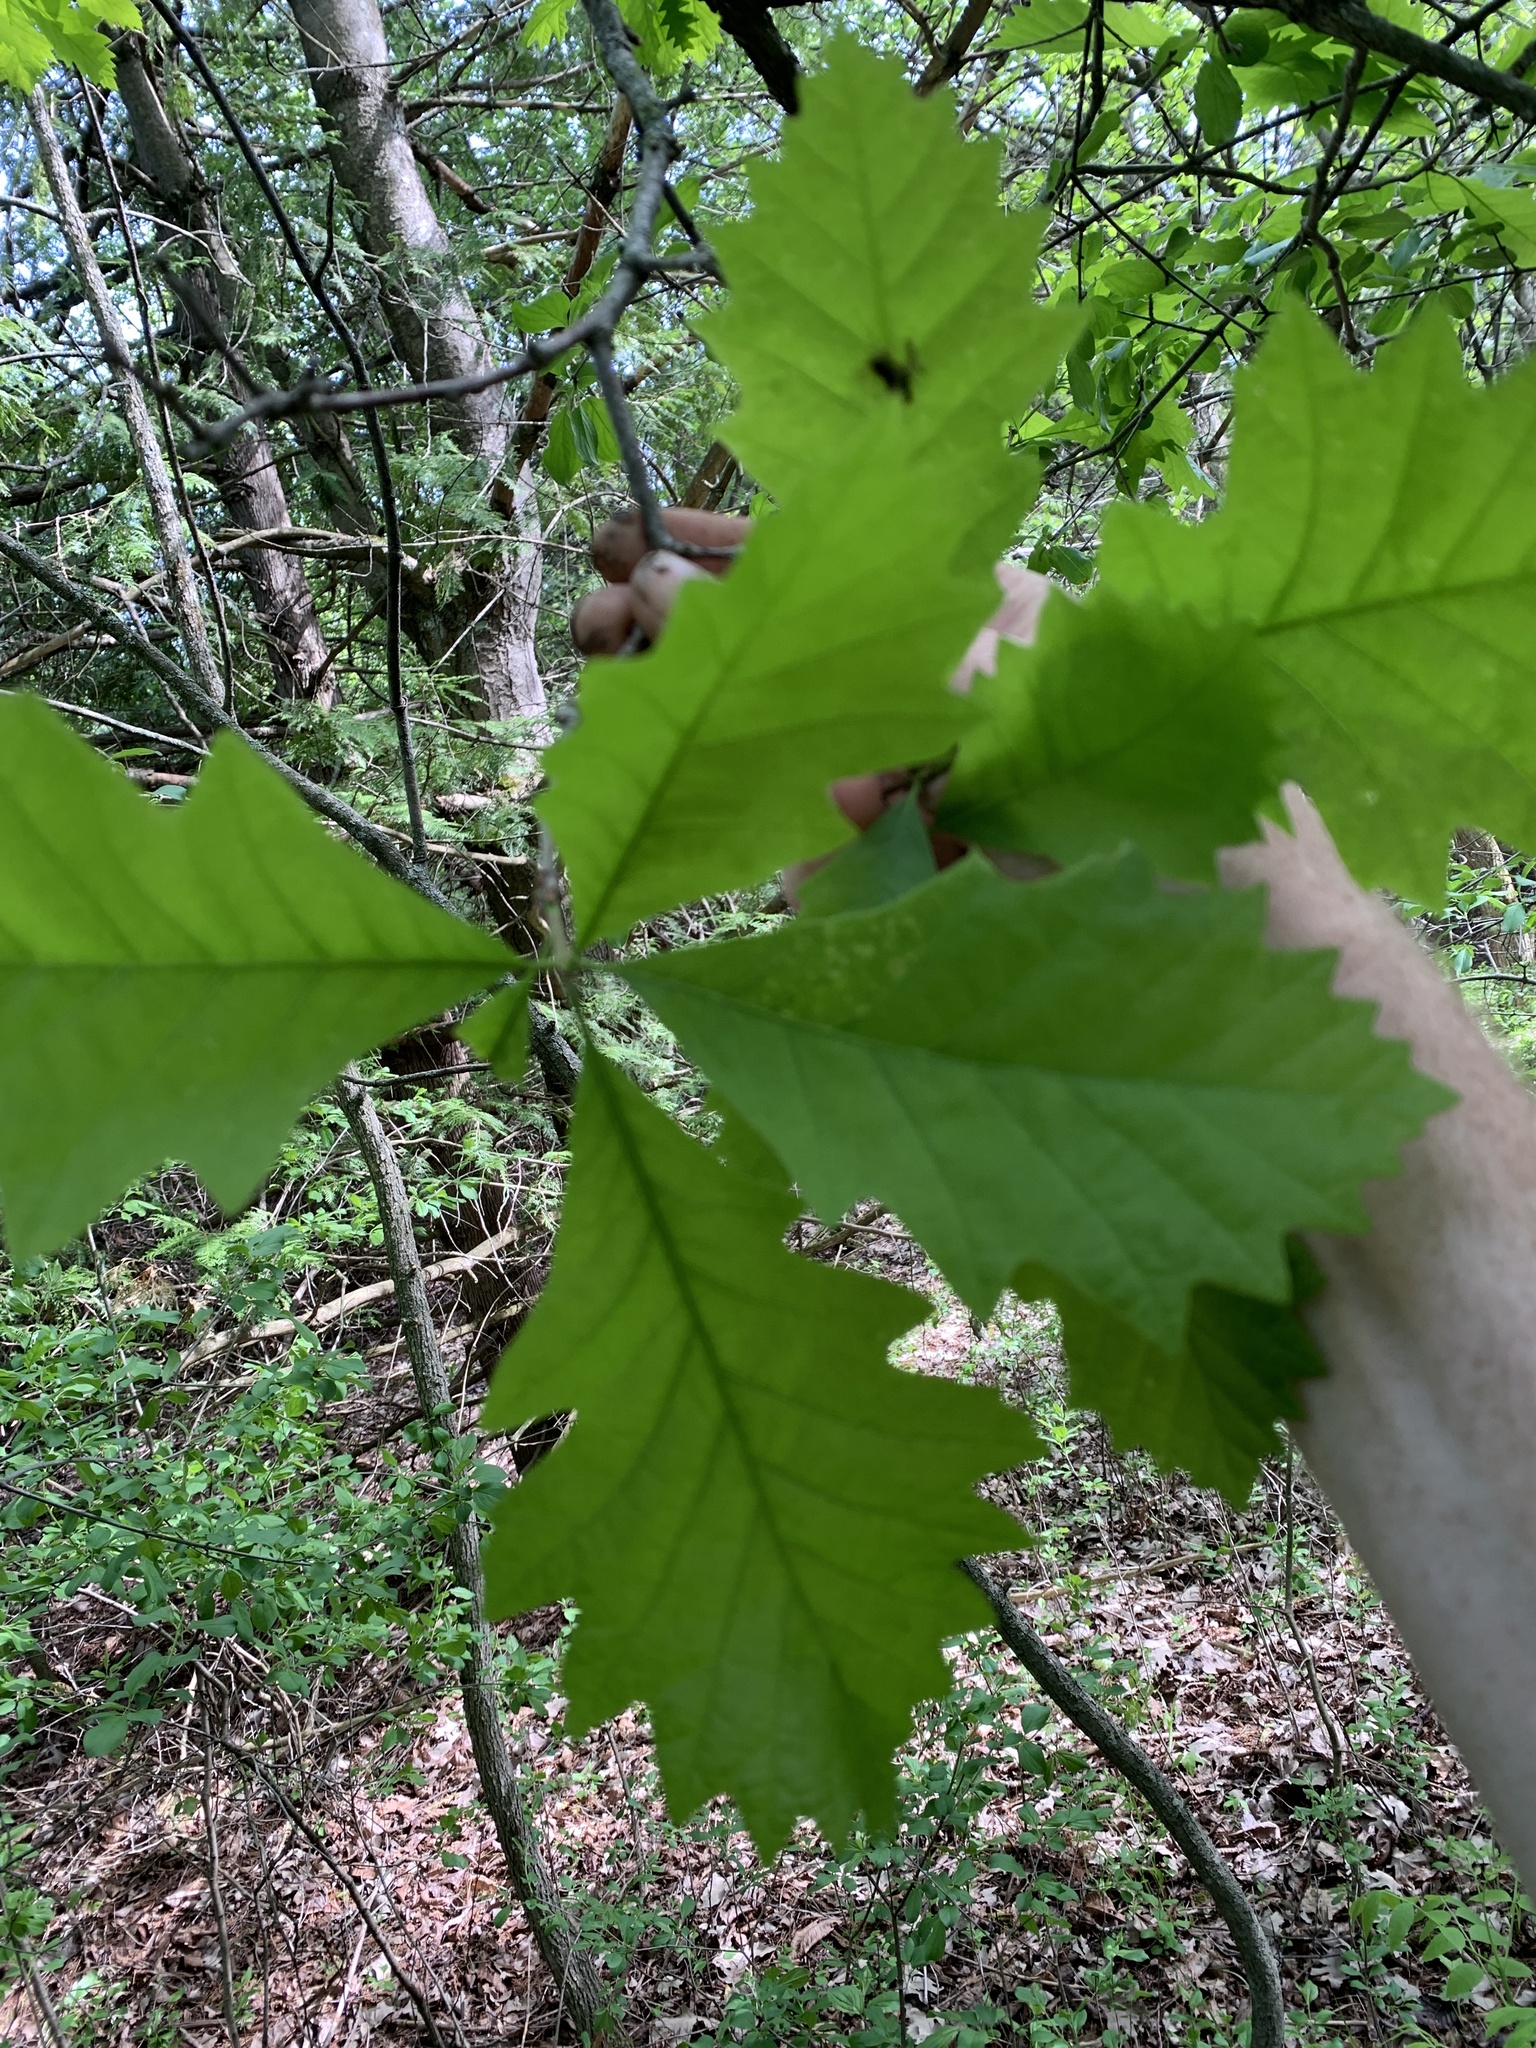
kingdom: Plantae
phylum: Tracheophyta
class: Magnoliopsida
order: Fagales
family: Fagaceae
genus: Quercus
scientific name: Quercus muehlenbergii
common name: Chinkapin oak
